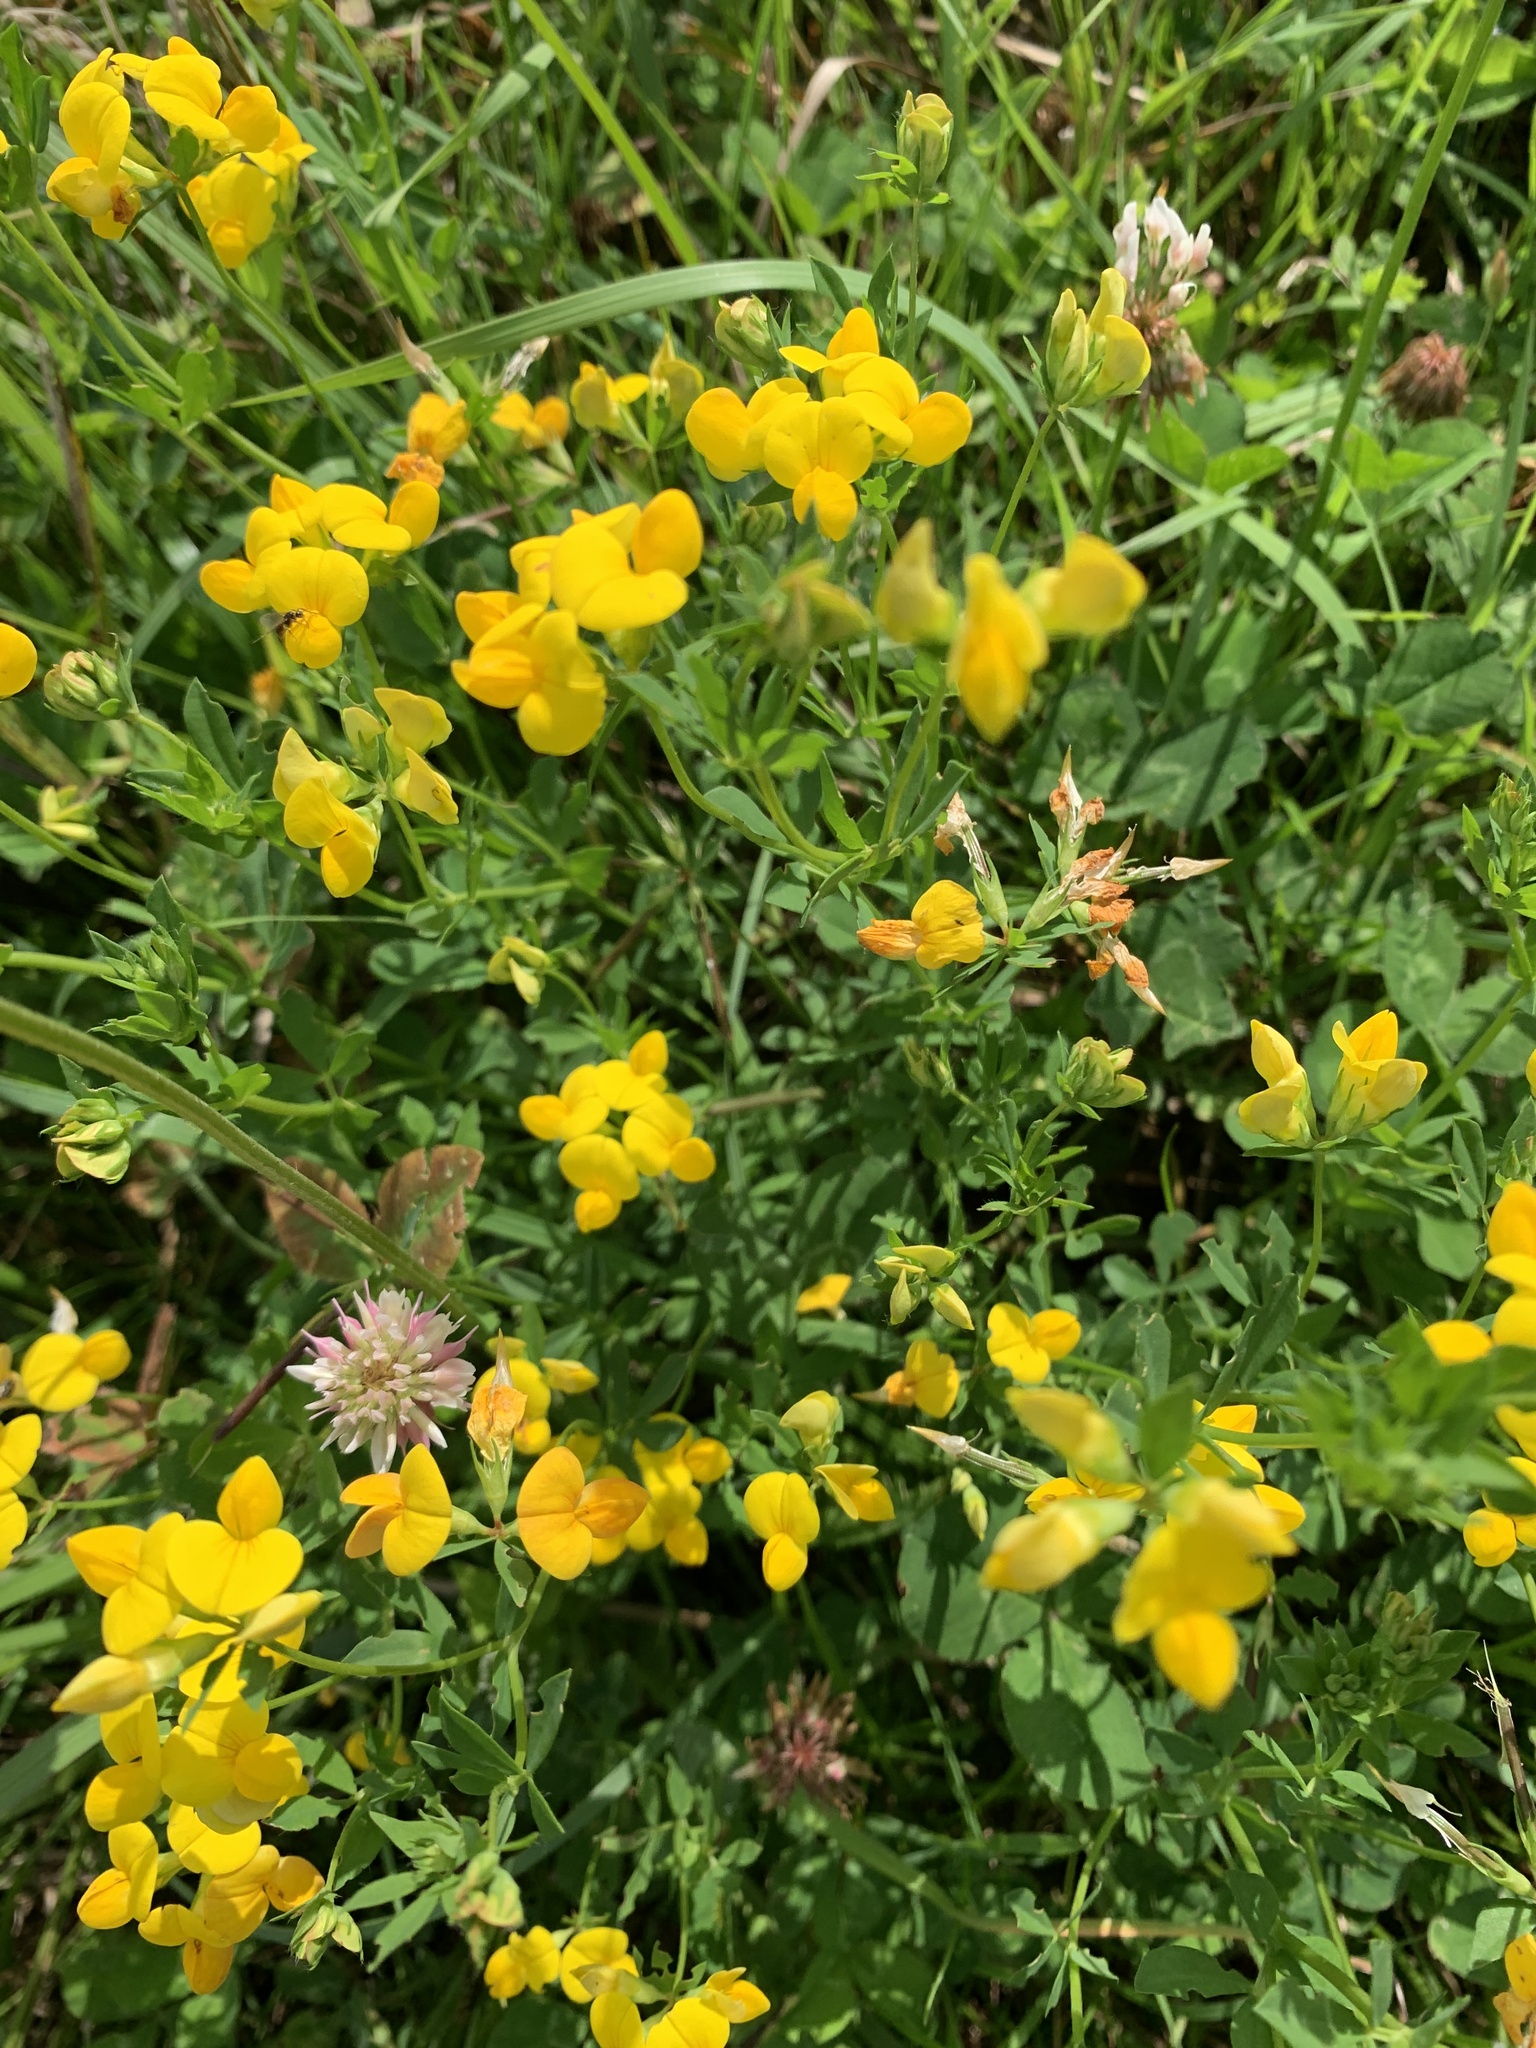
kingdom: Plantae
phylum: Tracheophyta
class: Magnoliopsida
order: Fabales
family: Fabaceae
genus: Lotus
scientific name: Lotus corniculatus
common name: Common bird's-foot-trefoil
